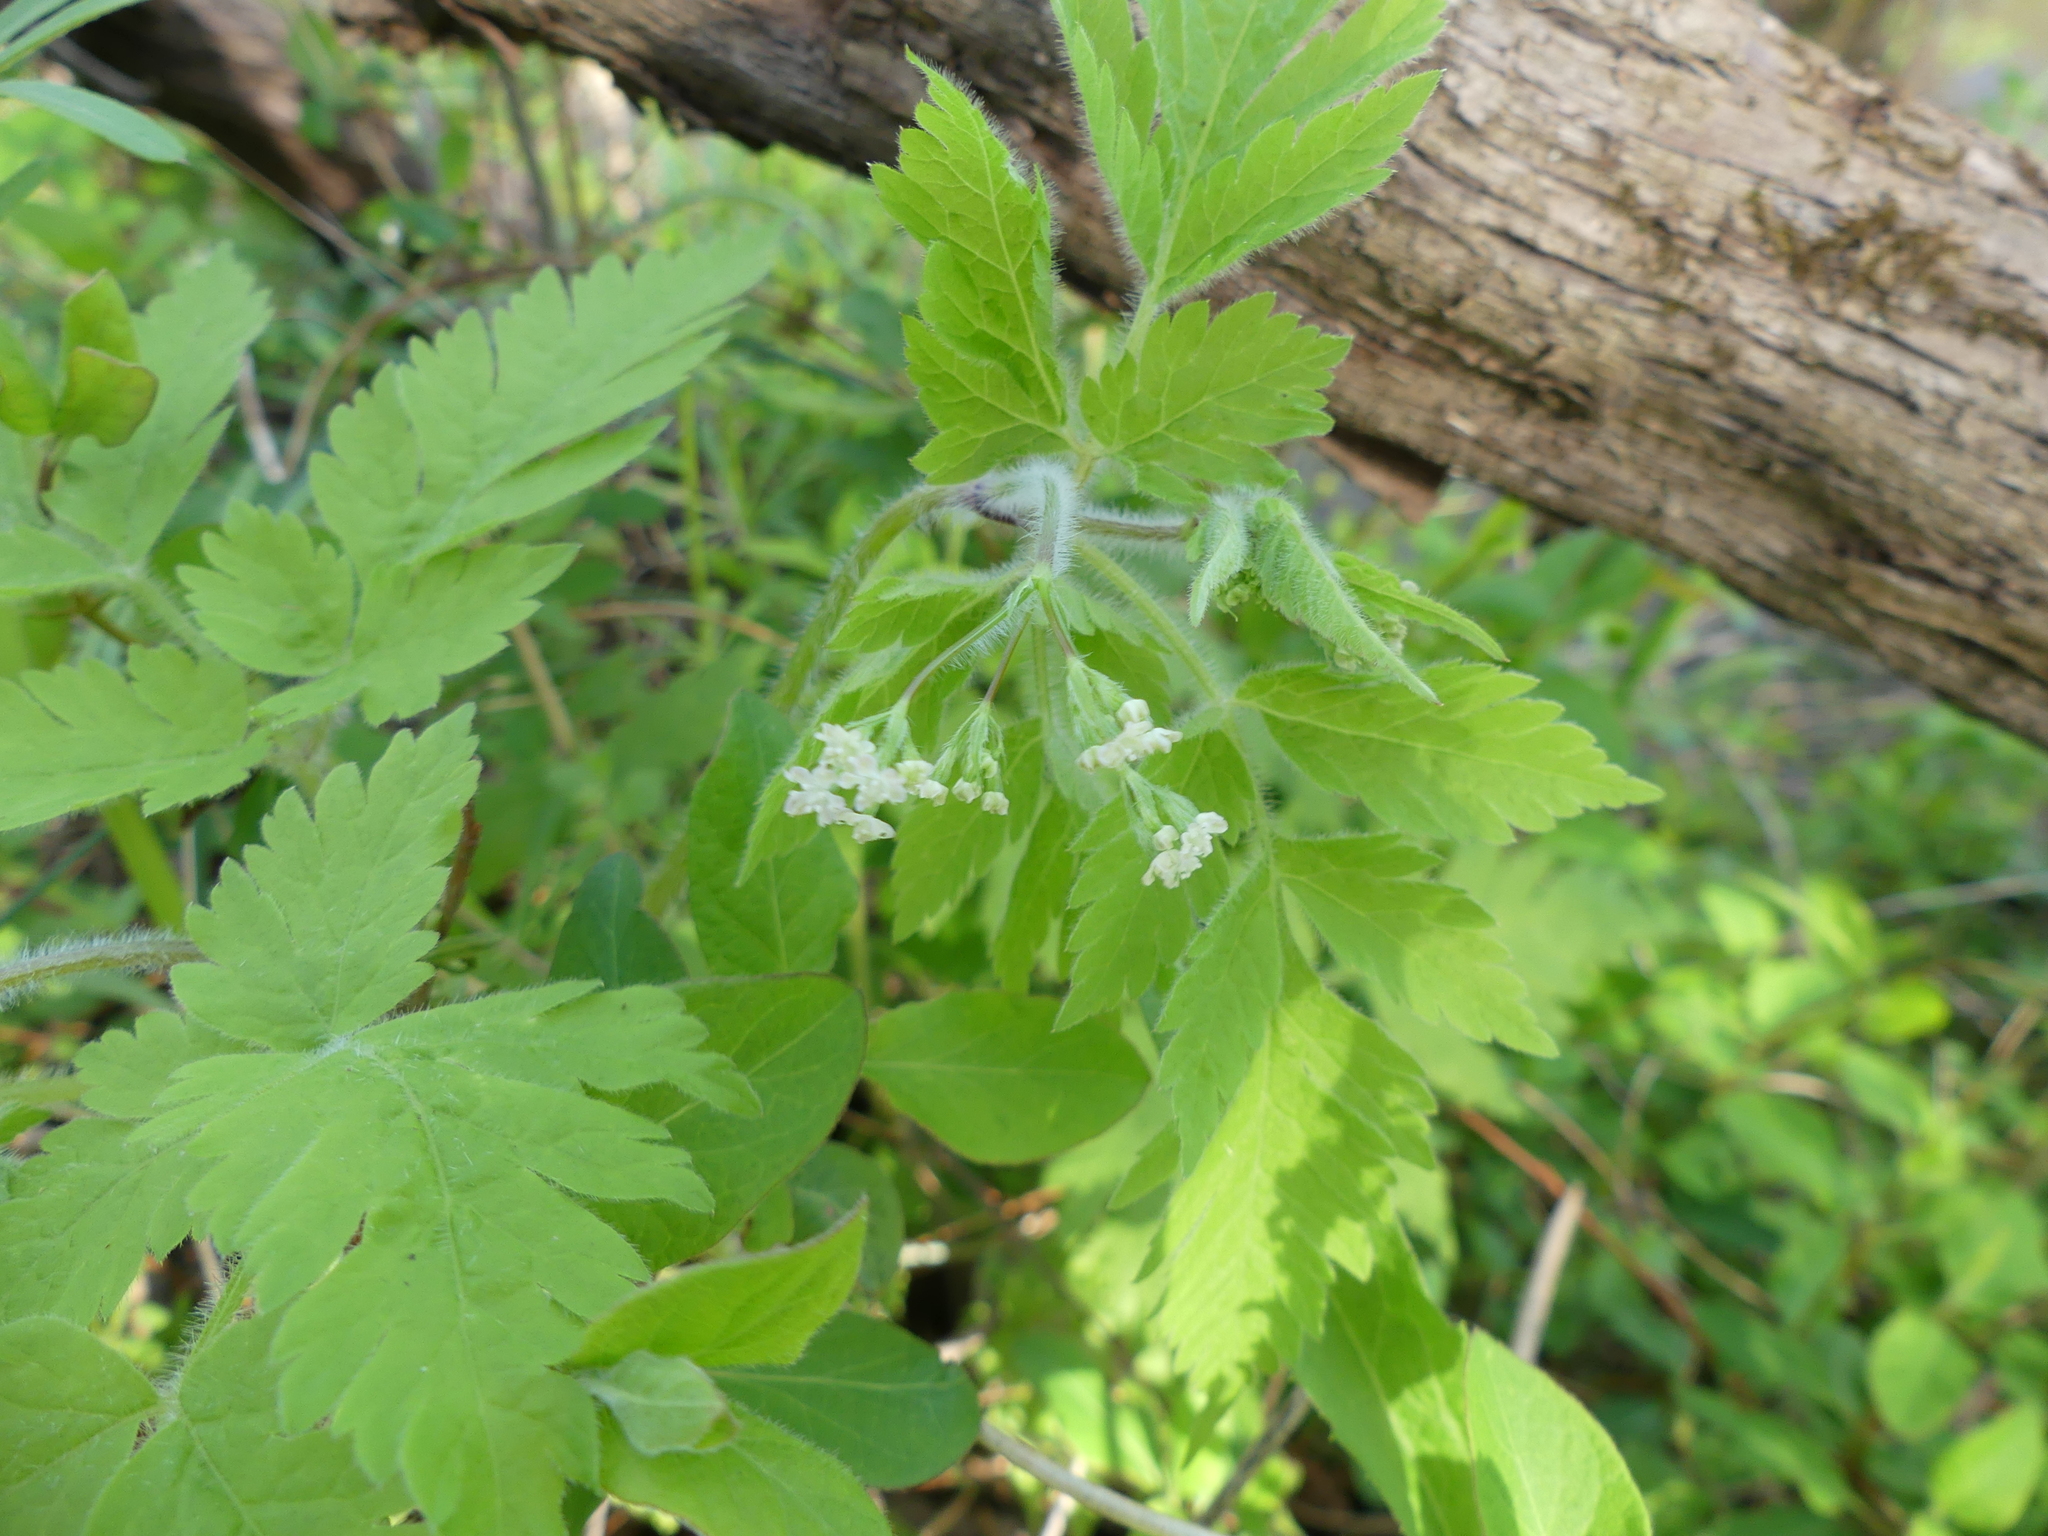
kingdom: Plantae
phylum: Tracheophyta
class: Magnoliopsida
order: Apiales
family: Apiaceae
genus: Osmorhiza
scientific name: Osmorhiza claytonii
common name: Hairy sweet cicely
